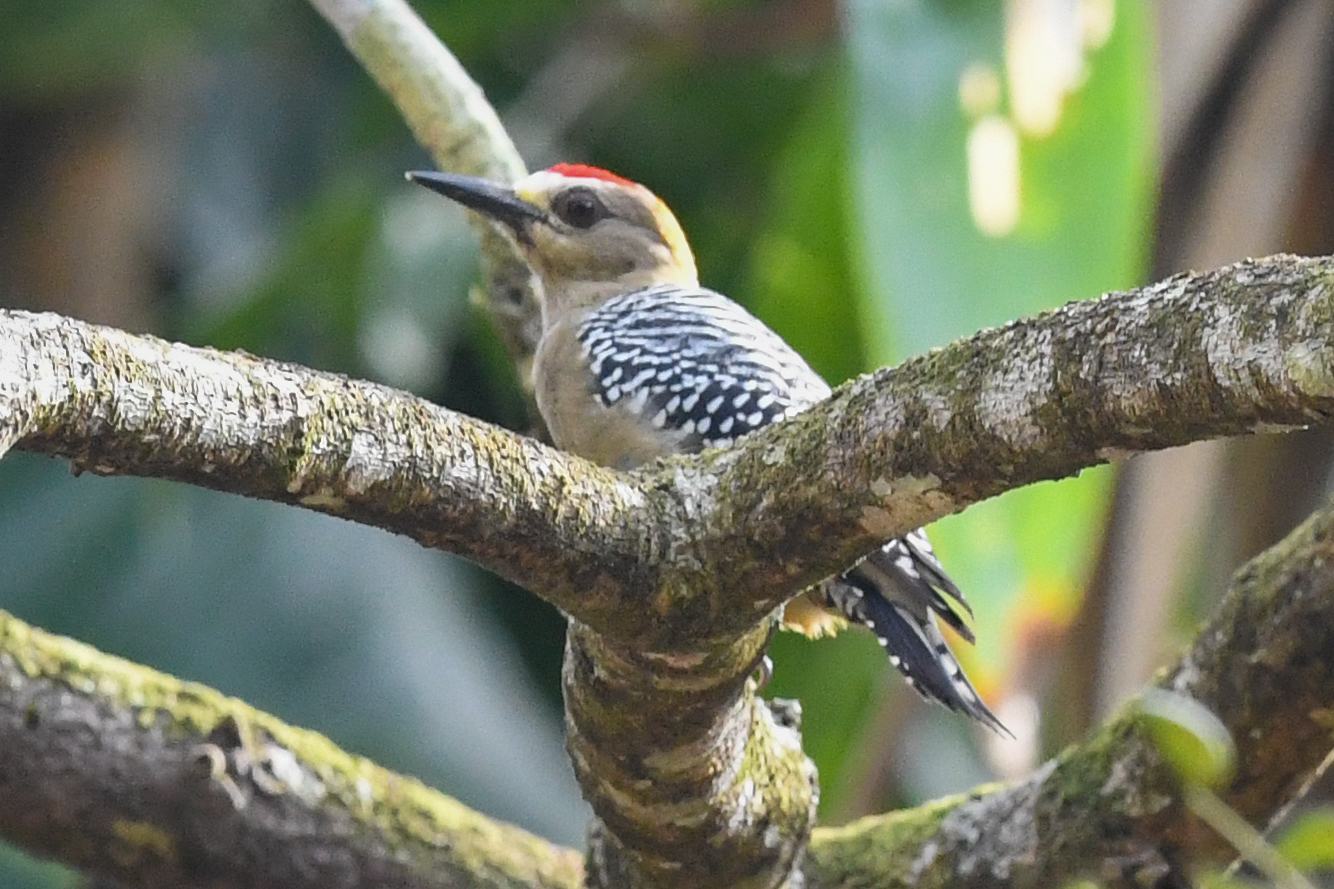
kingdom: Animalia
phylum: Chordata
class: Aves
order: Piciformes
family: Picidae
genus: Melanerpes
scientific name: Melanerpes hoffmannii
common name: Hoffmann's woodpecker
